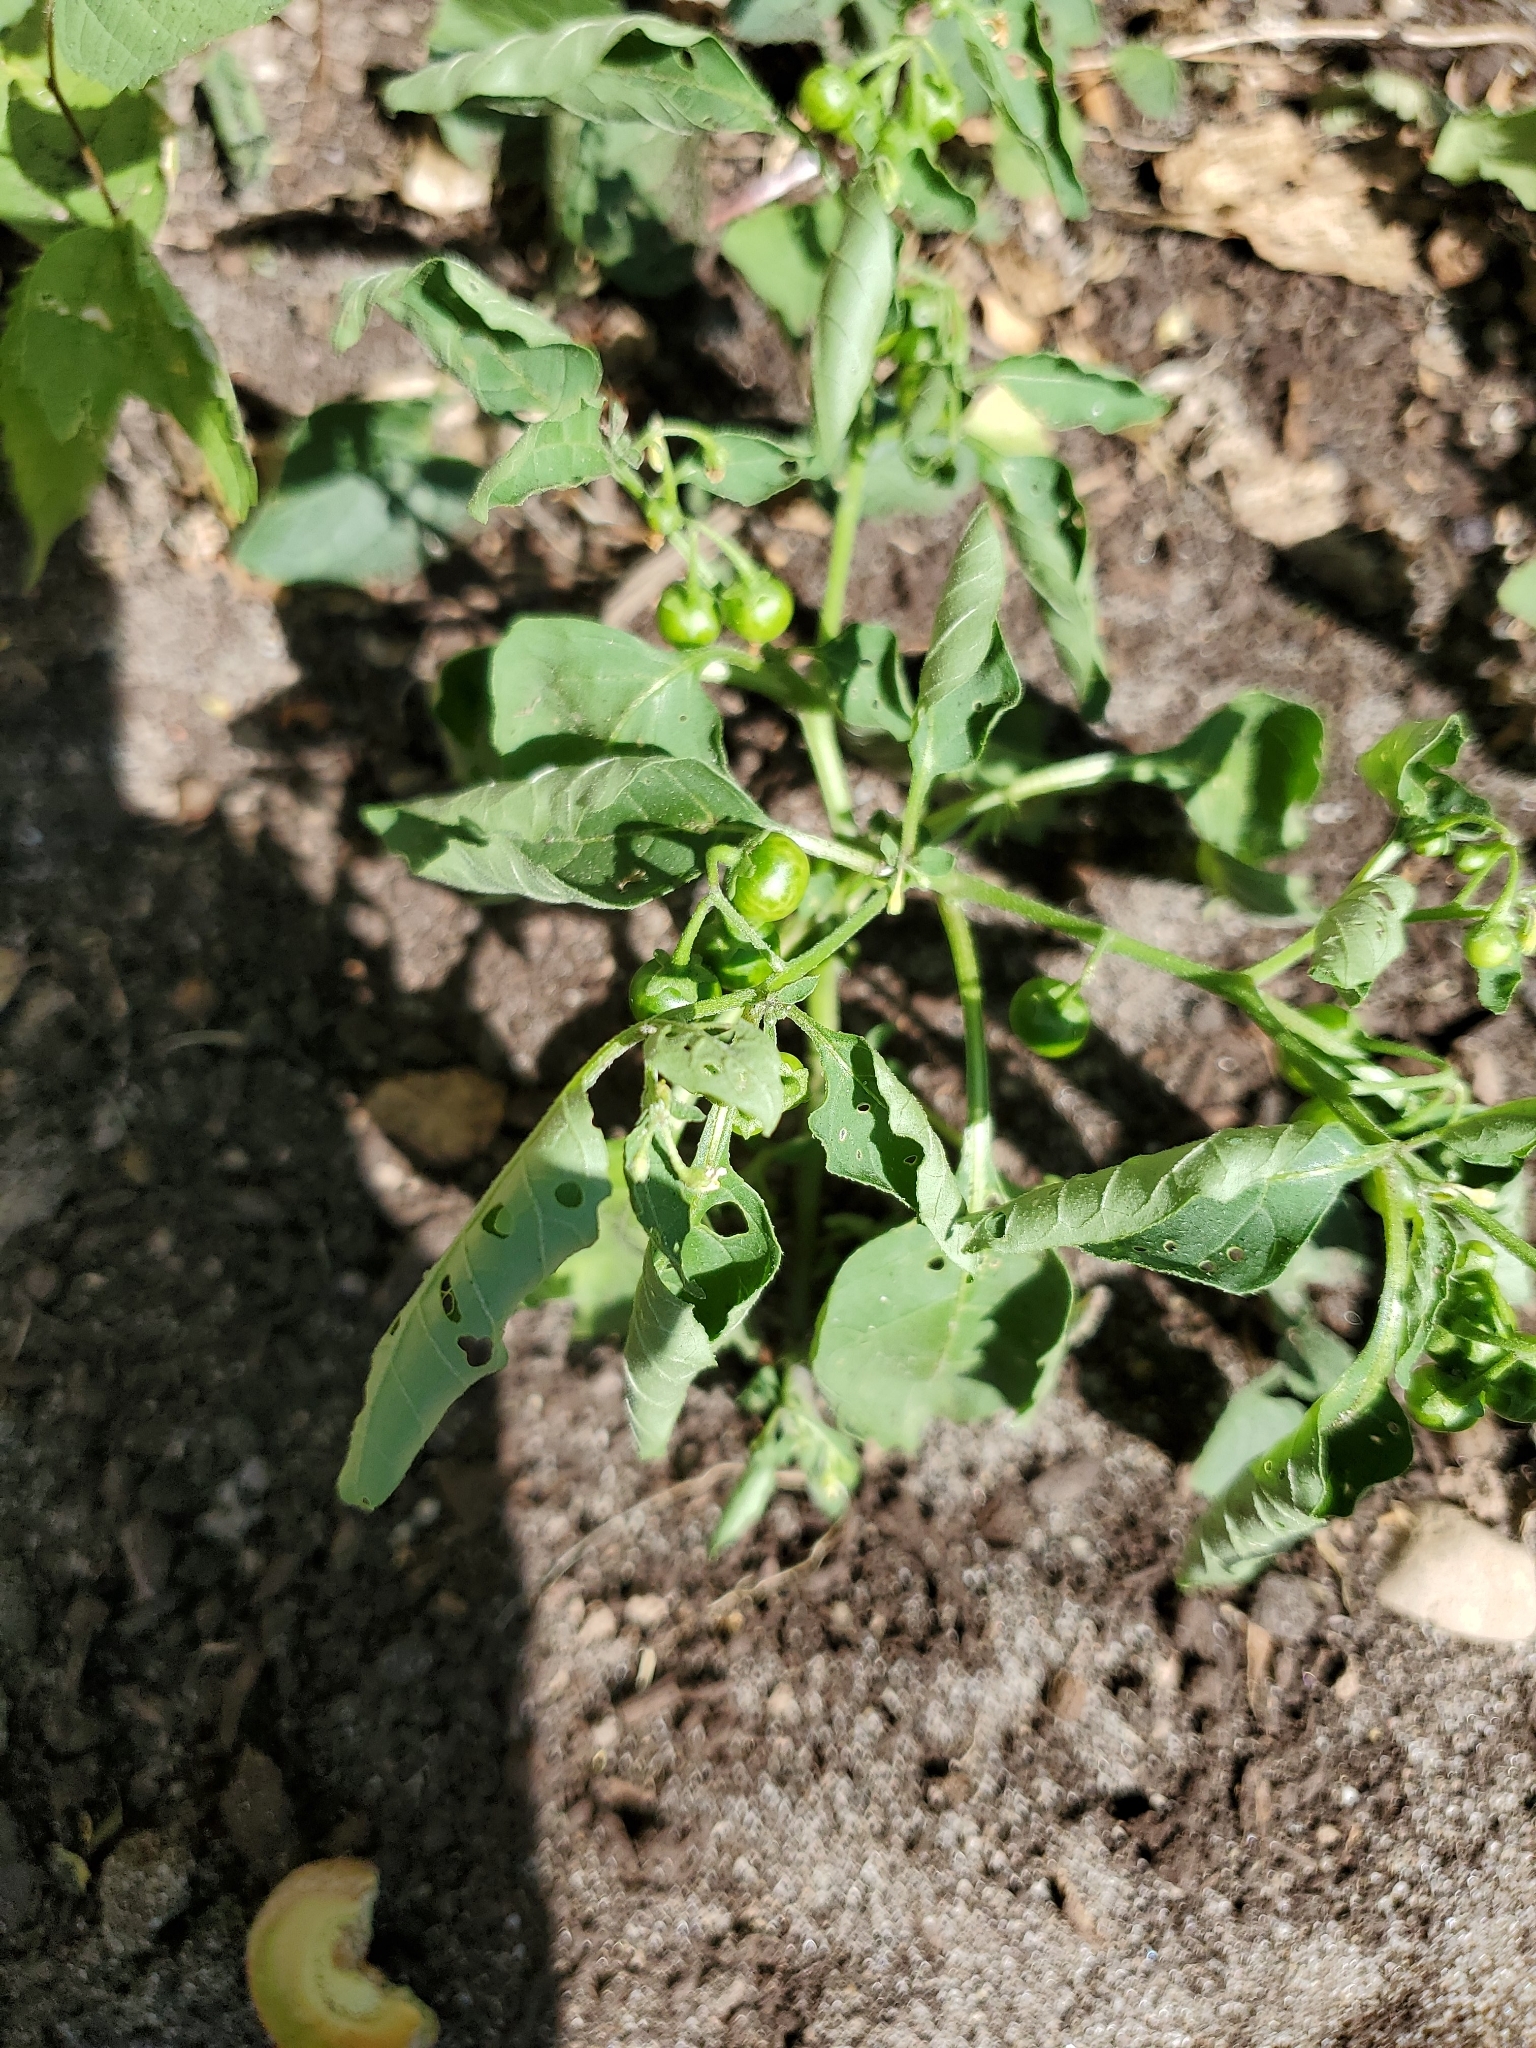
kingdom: Plantae
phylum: Tracheophyta
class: Magnoliopsida
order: Solanales
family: Solanaceae
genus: Solanum
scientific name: Solanum emulans
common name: Eastern black nightshade
